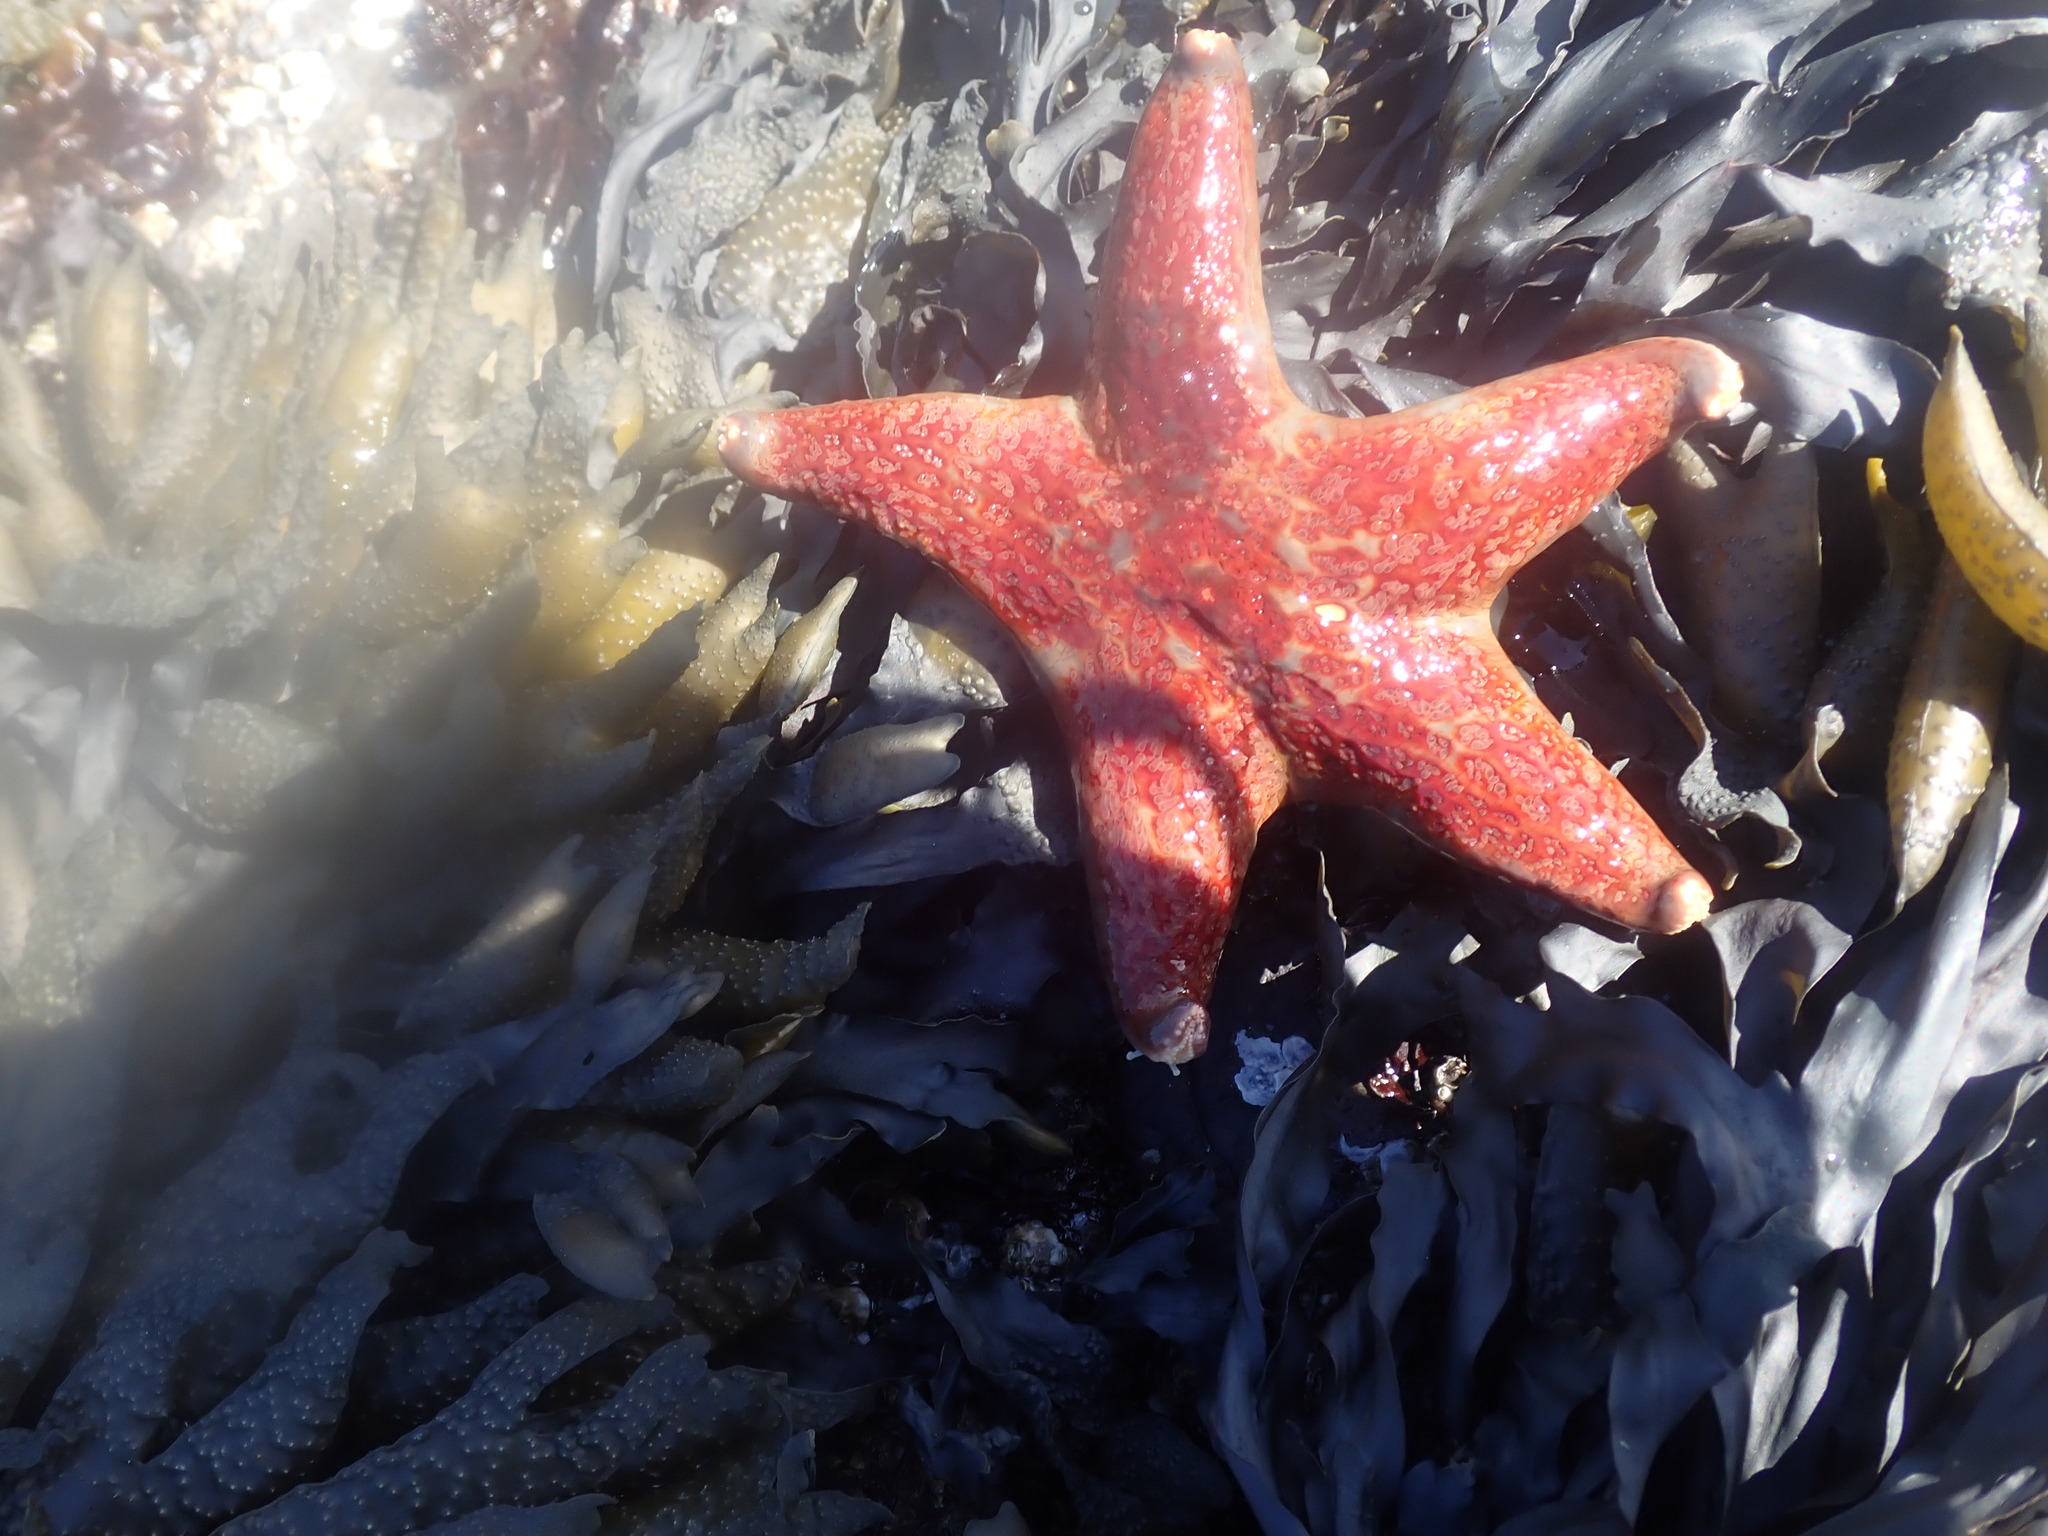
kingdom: Animalia
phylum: Echinodermata
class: Asteroidea
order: Valvatida
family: Asteropseidae
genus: Dermasterias
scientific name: Dermasterias imbricata
